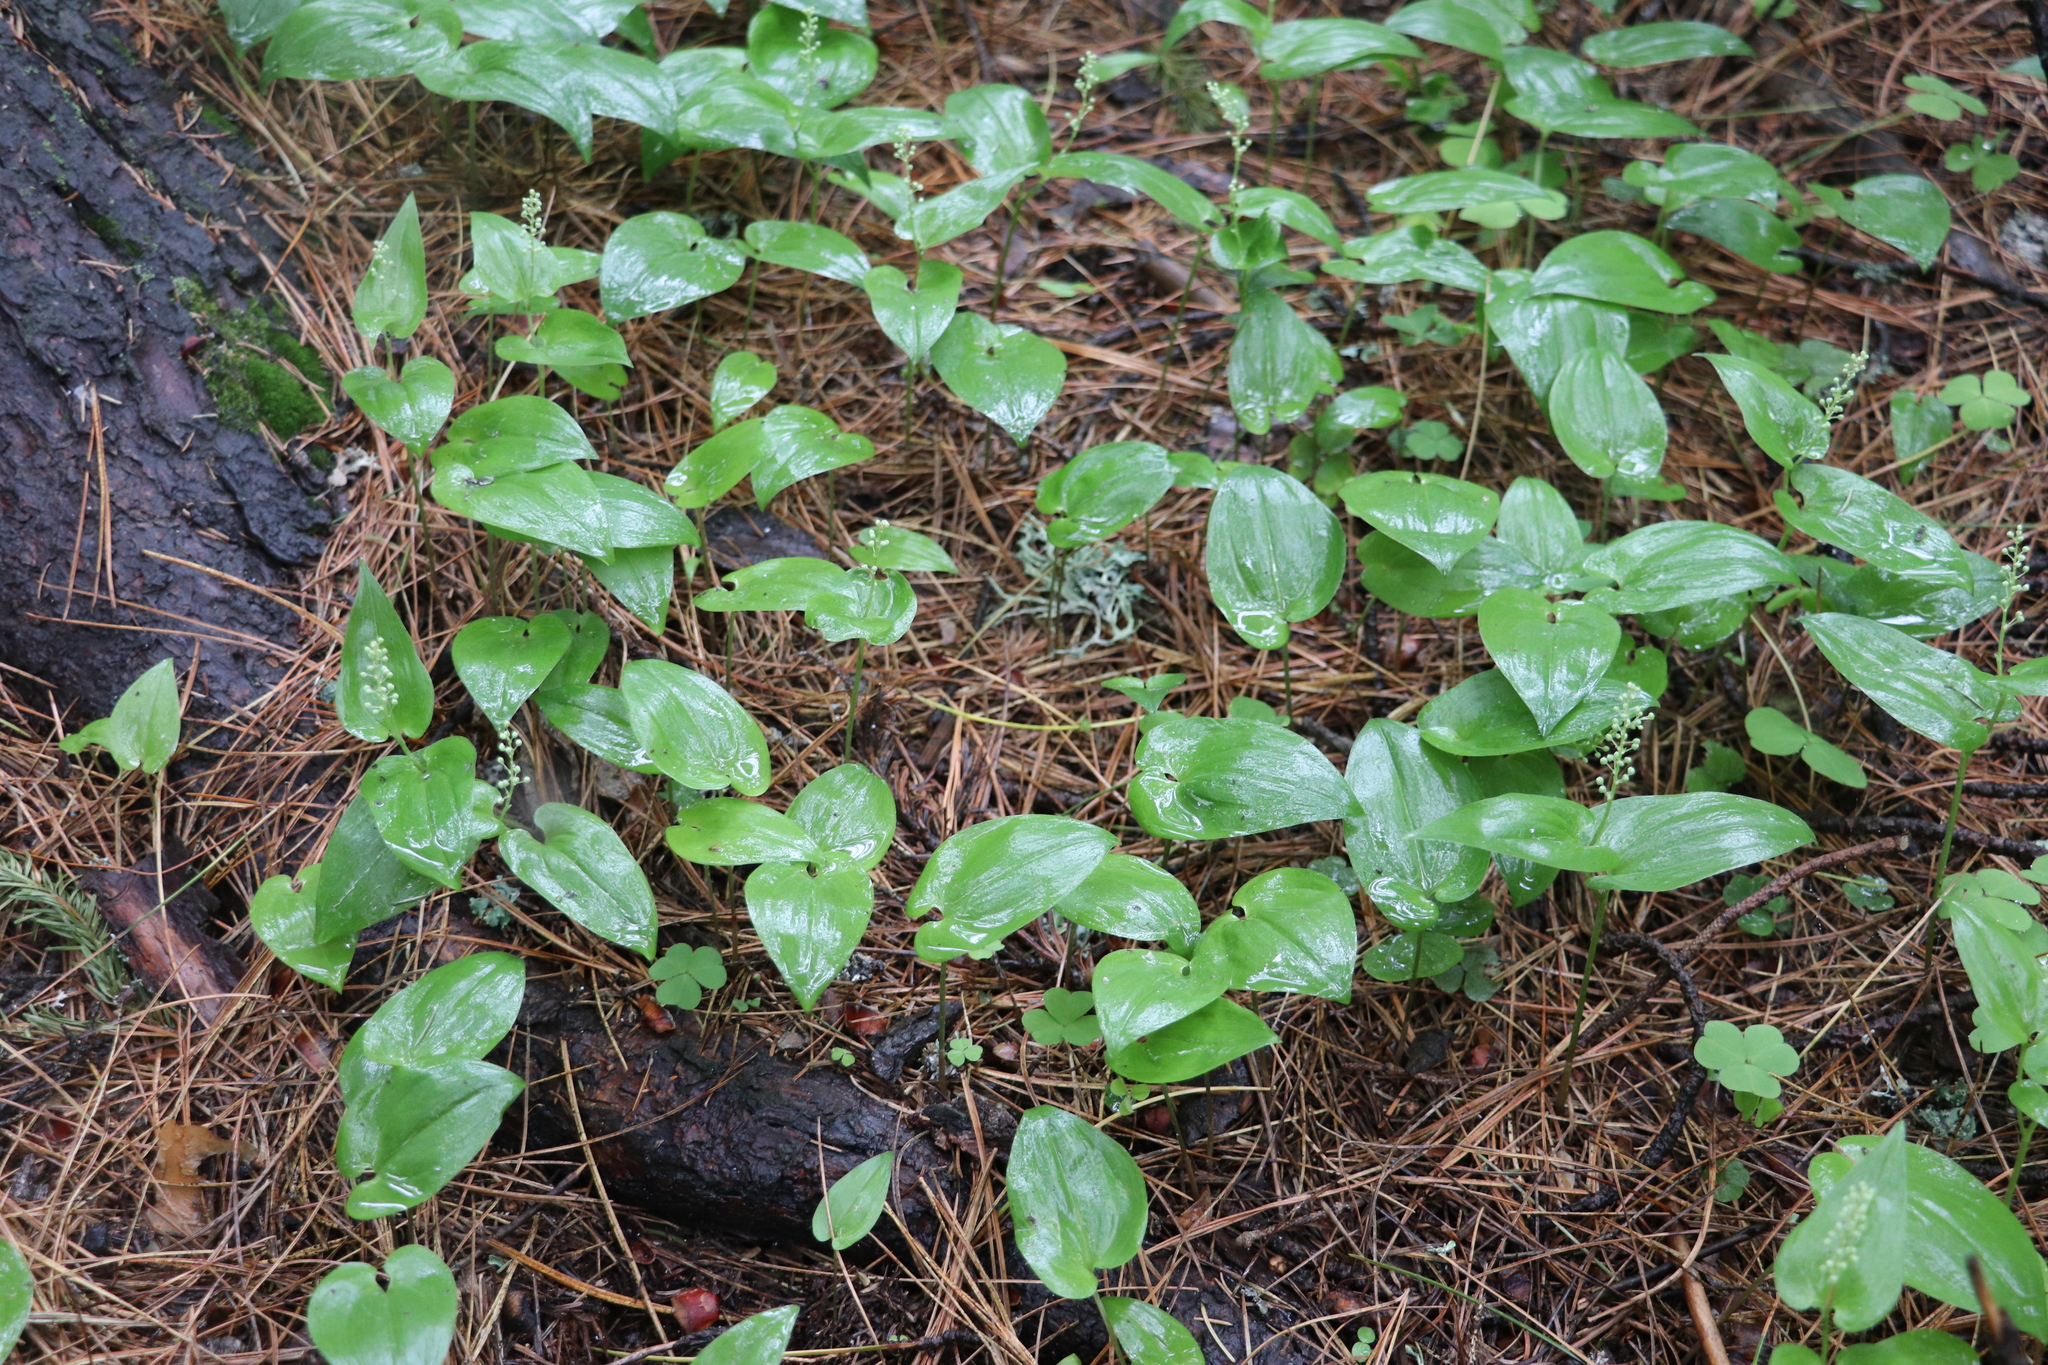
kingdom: Plantae
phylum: Tracheophyta
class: Liliopsida
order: Asparagales
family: Asparagaceae
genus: Maianthemum
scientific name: Maianthemum bifolium
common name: May lily
